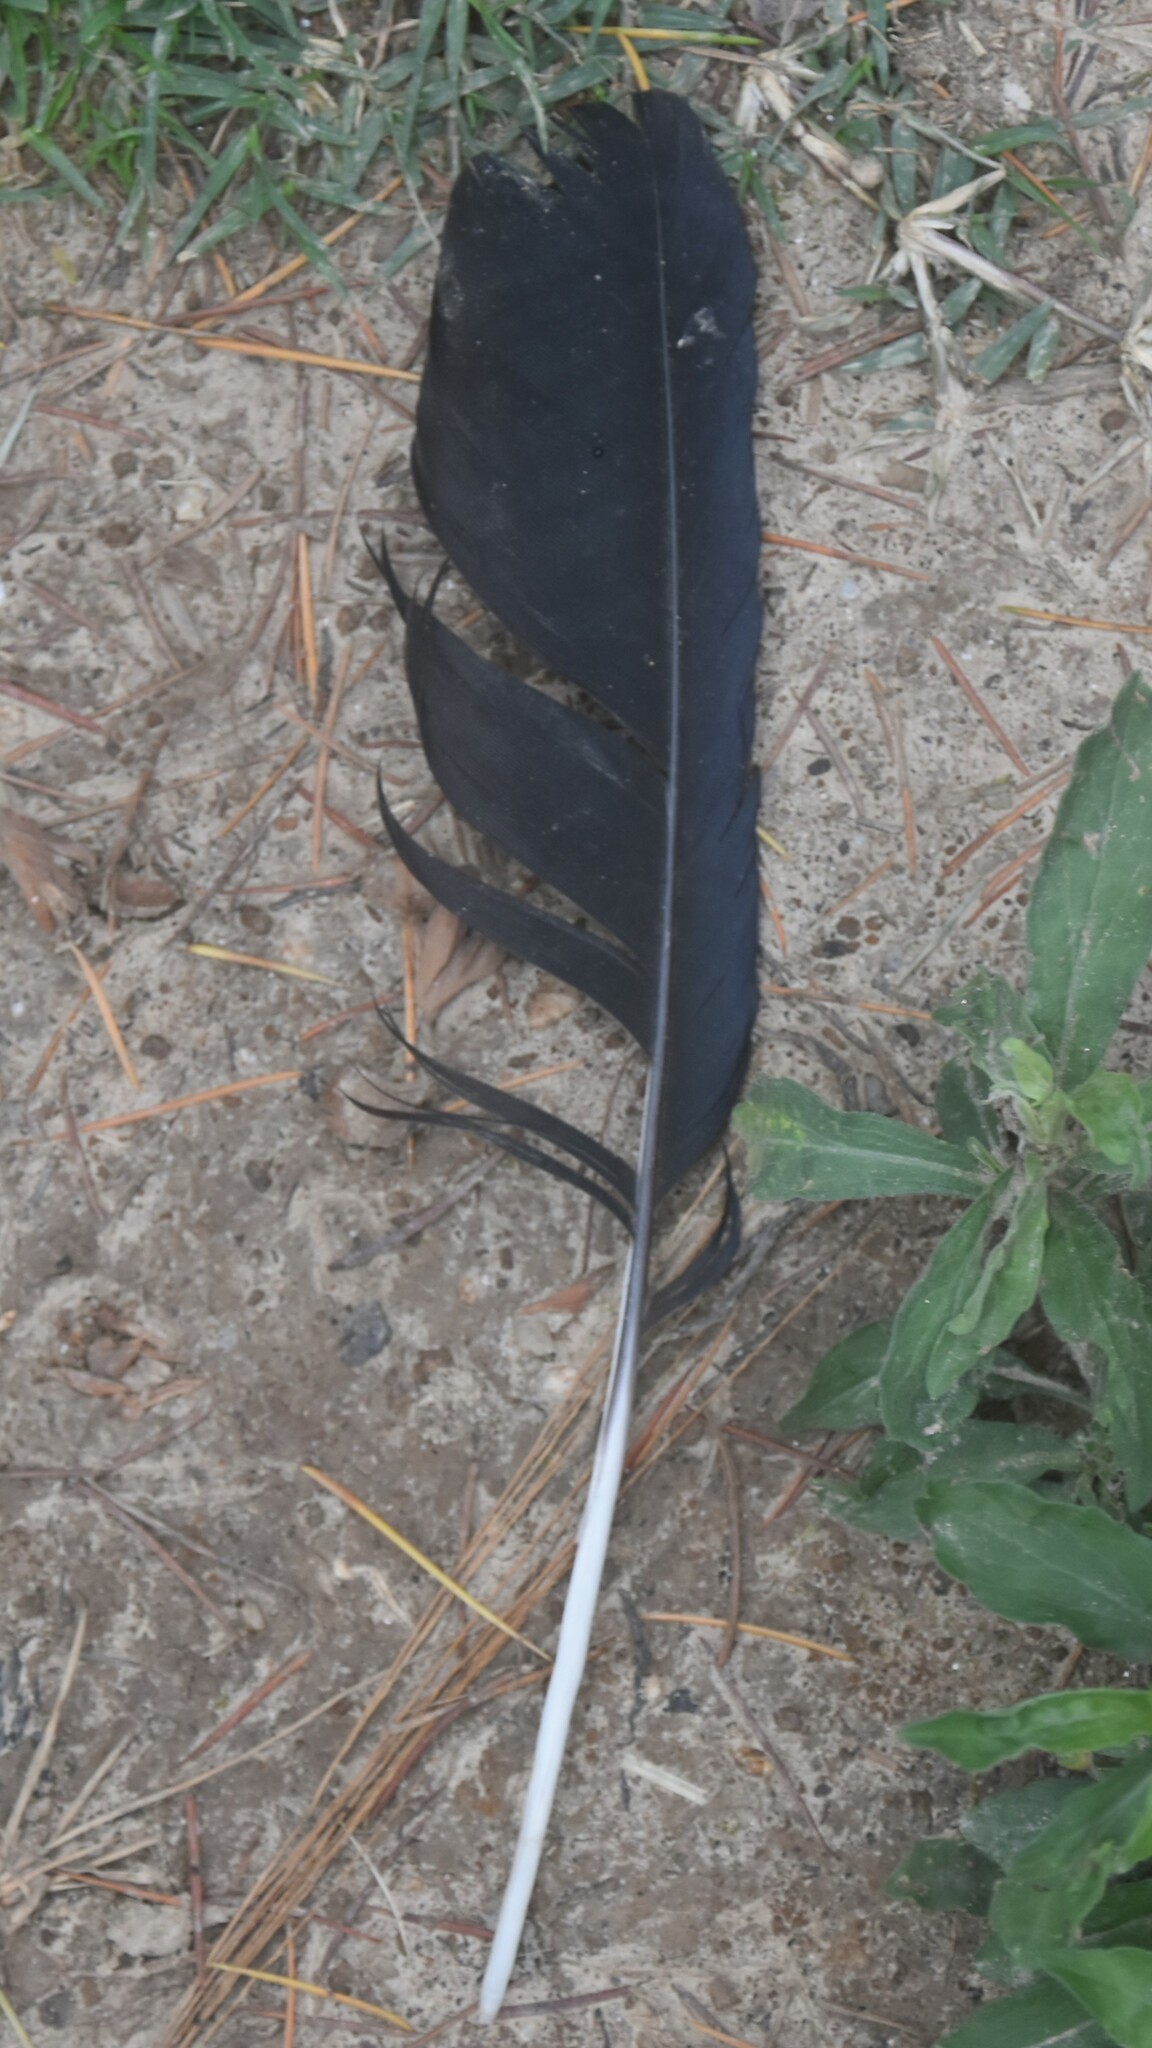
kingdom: Animalia
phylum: Chordata
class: Aves
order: Passeriformes
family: Corvidae
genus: Corvus
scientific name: Corvus macrorhynchos
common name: Large-billed crow
